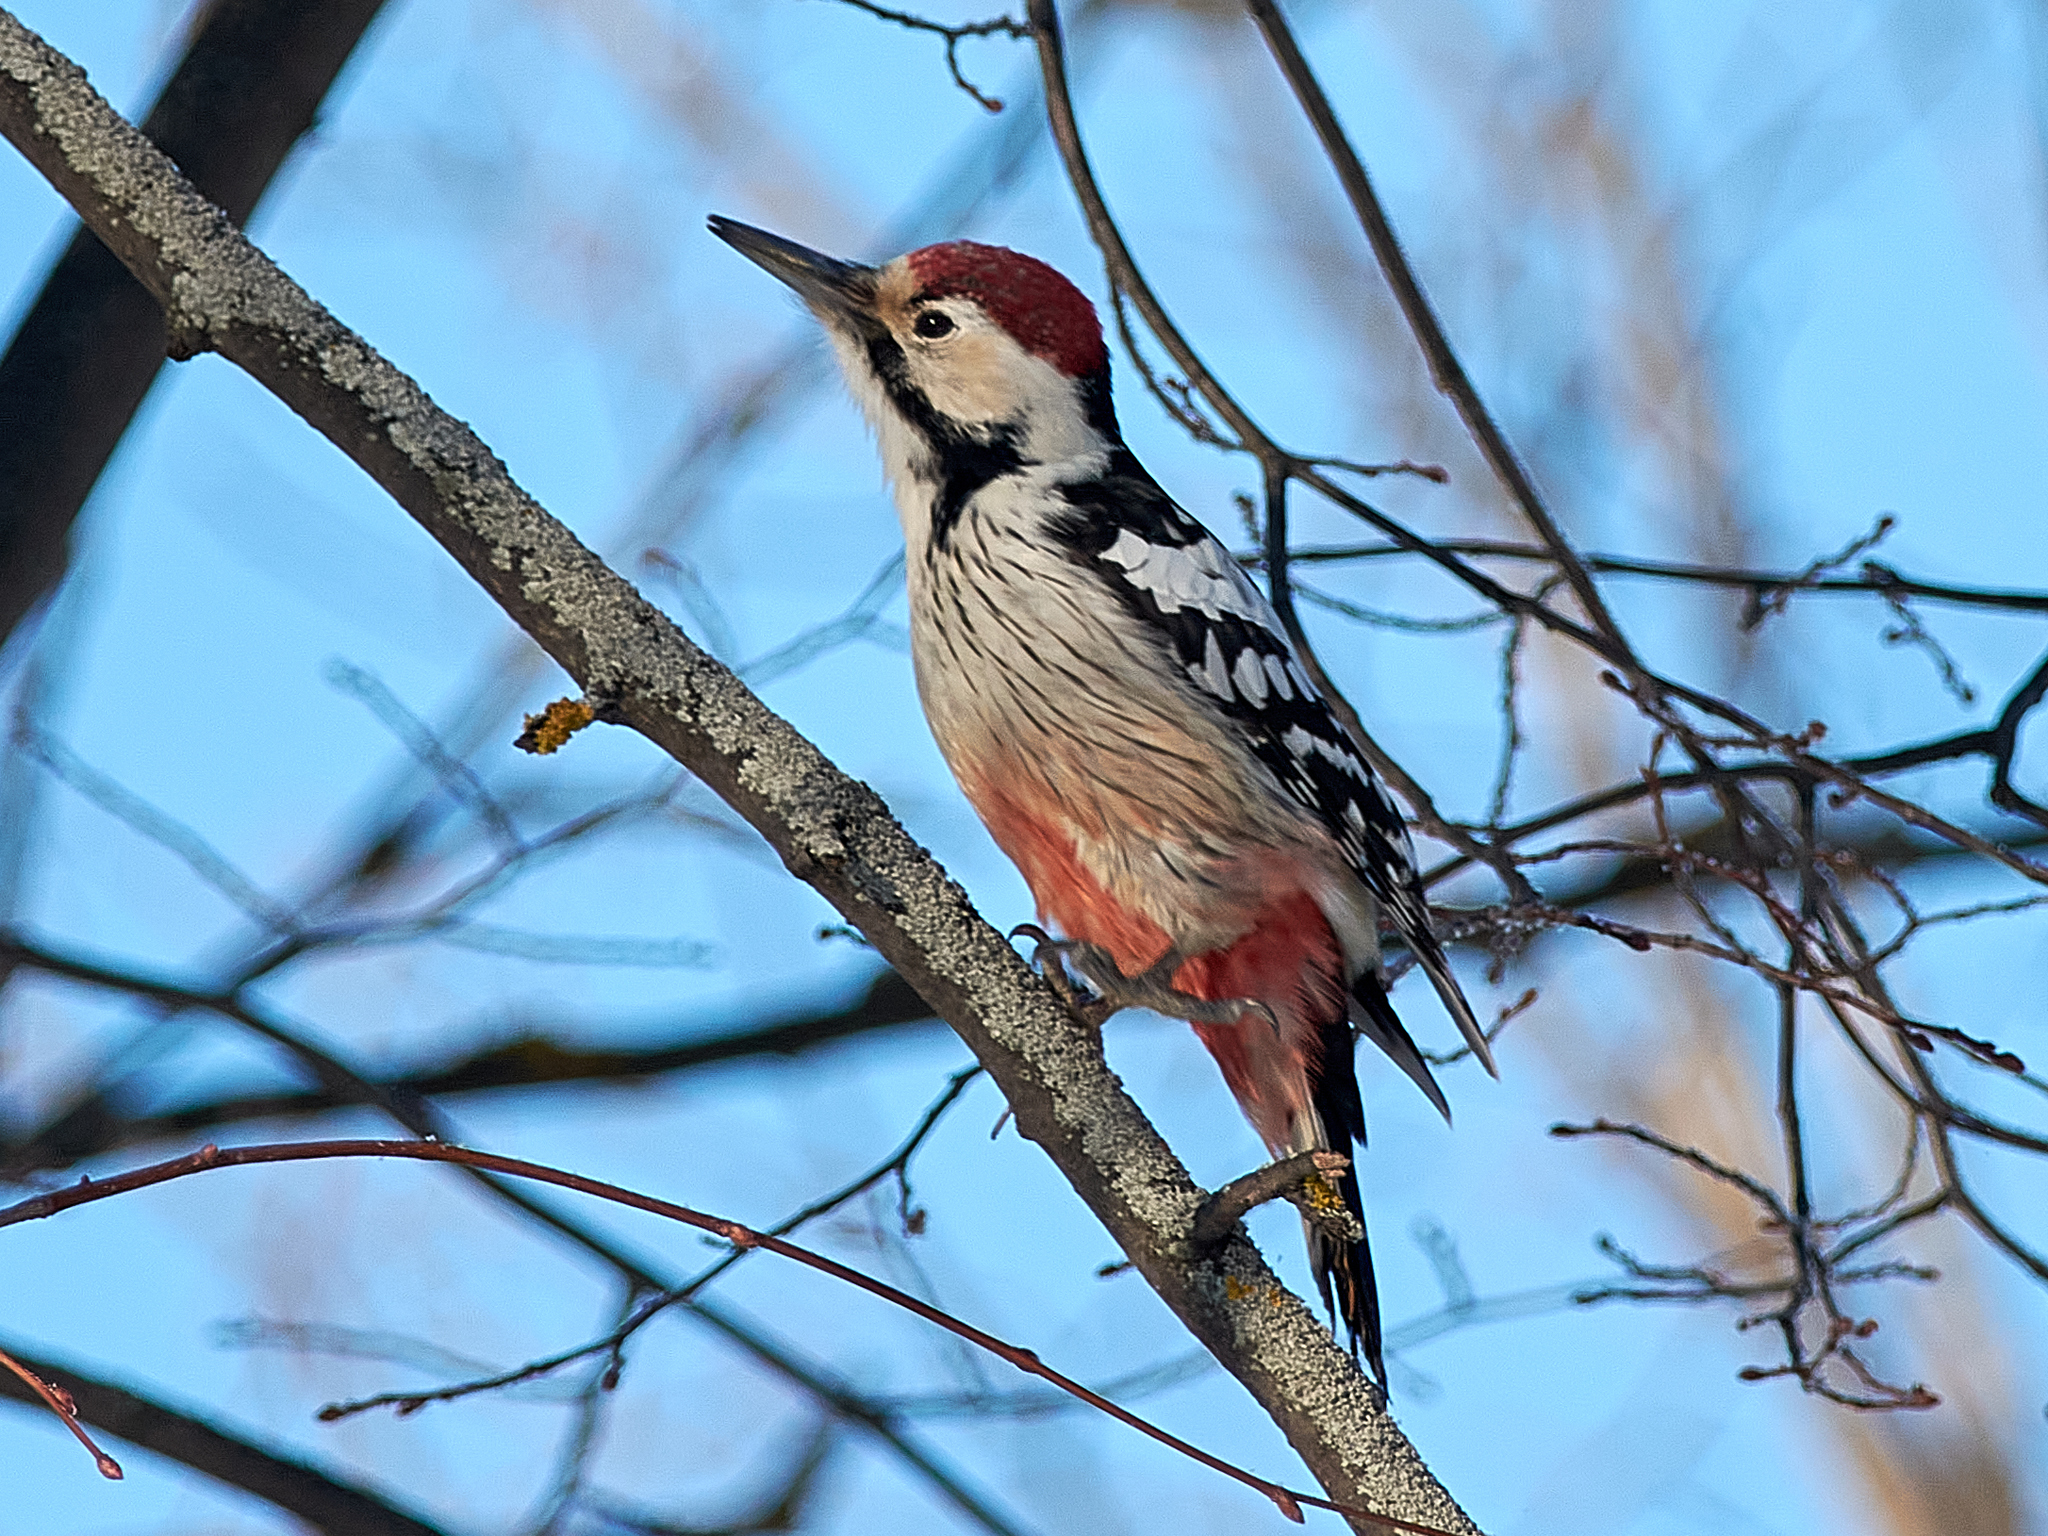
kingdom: Animalia
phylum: Chordata
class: Aves
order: Piciformes
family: Picidae
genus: Dendrocopos
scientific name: Dendrocopos leucotos
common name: White-backed woodpecker
